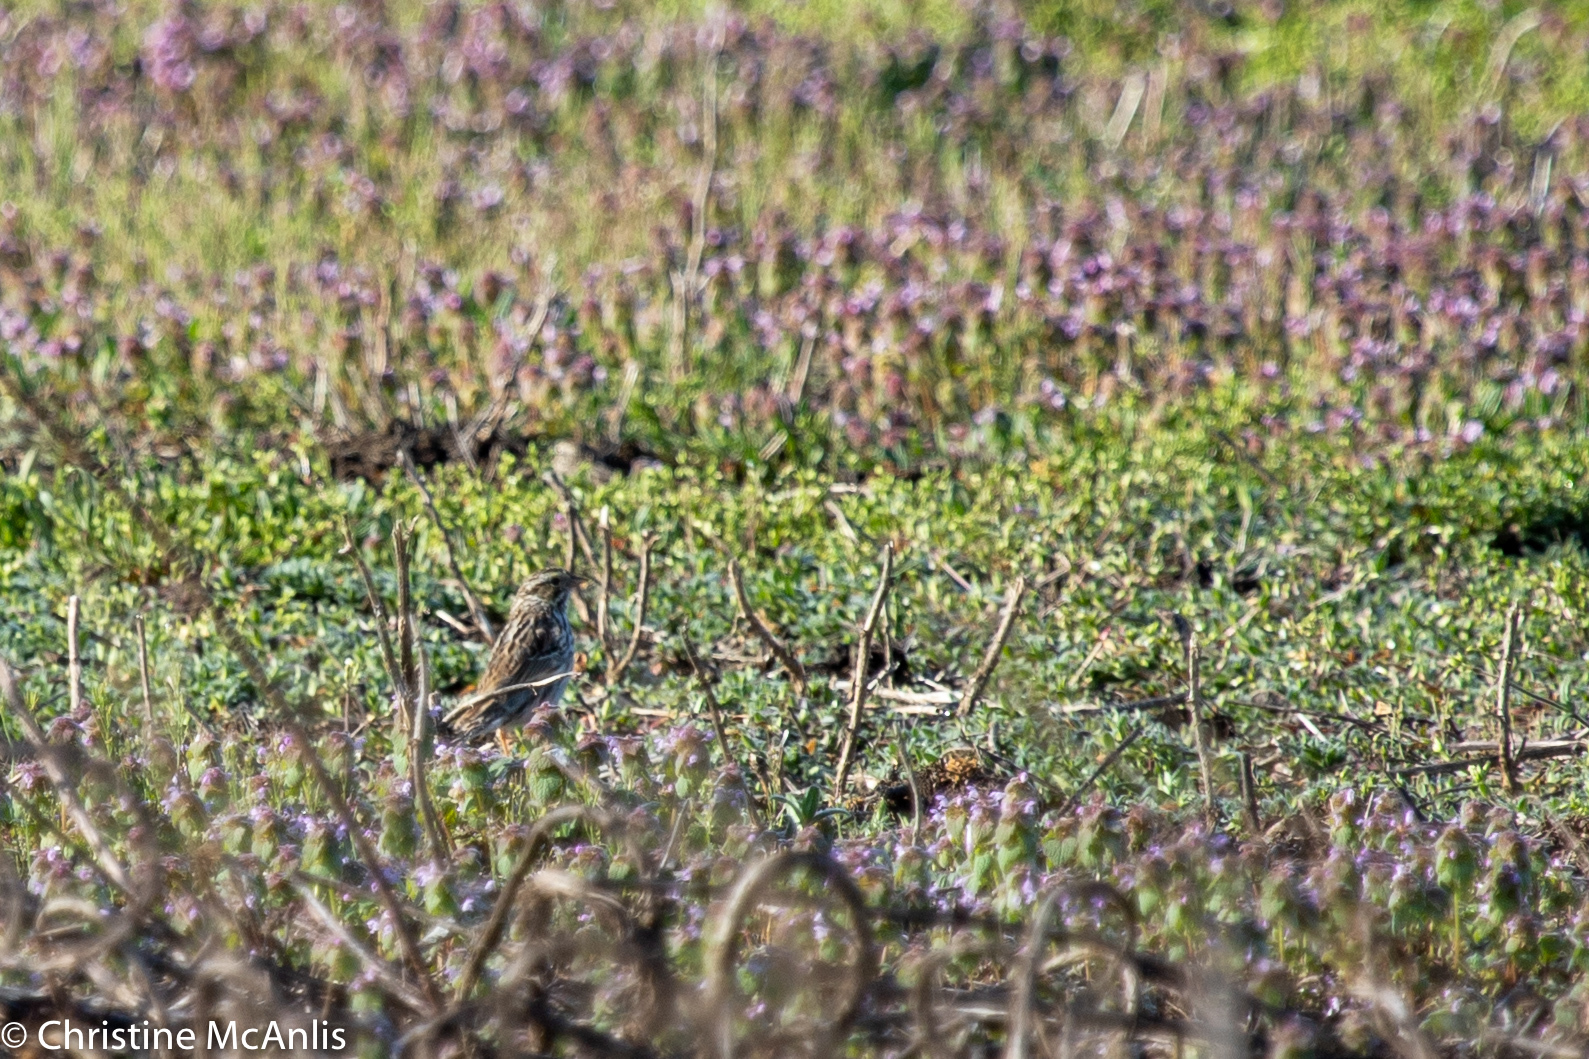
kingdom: Animalia
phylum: Chordata
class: Aves
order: Passeriformes
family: Passerellidae
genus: Passerculus
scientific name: Passerculus sandwichensis
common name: Savannah sparrow
